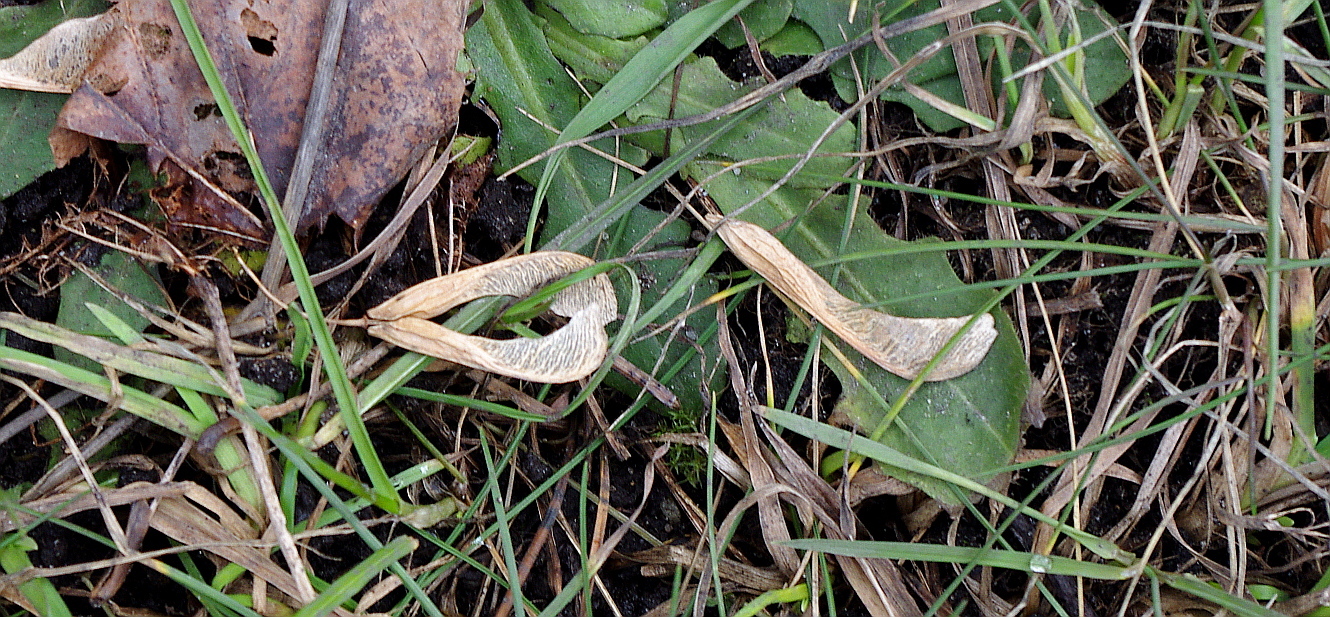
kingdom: Plantae
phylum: Tracheophyta
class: Magnoliopsida
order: Sapindales
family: Sapindaceae
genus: Acer
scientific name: Acer negundo
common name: Ashleaf maple
